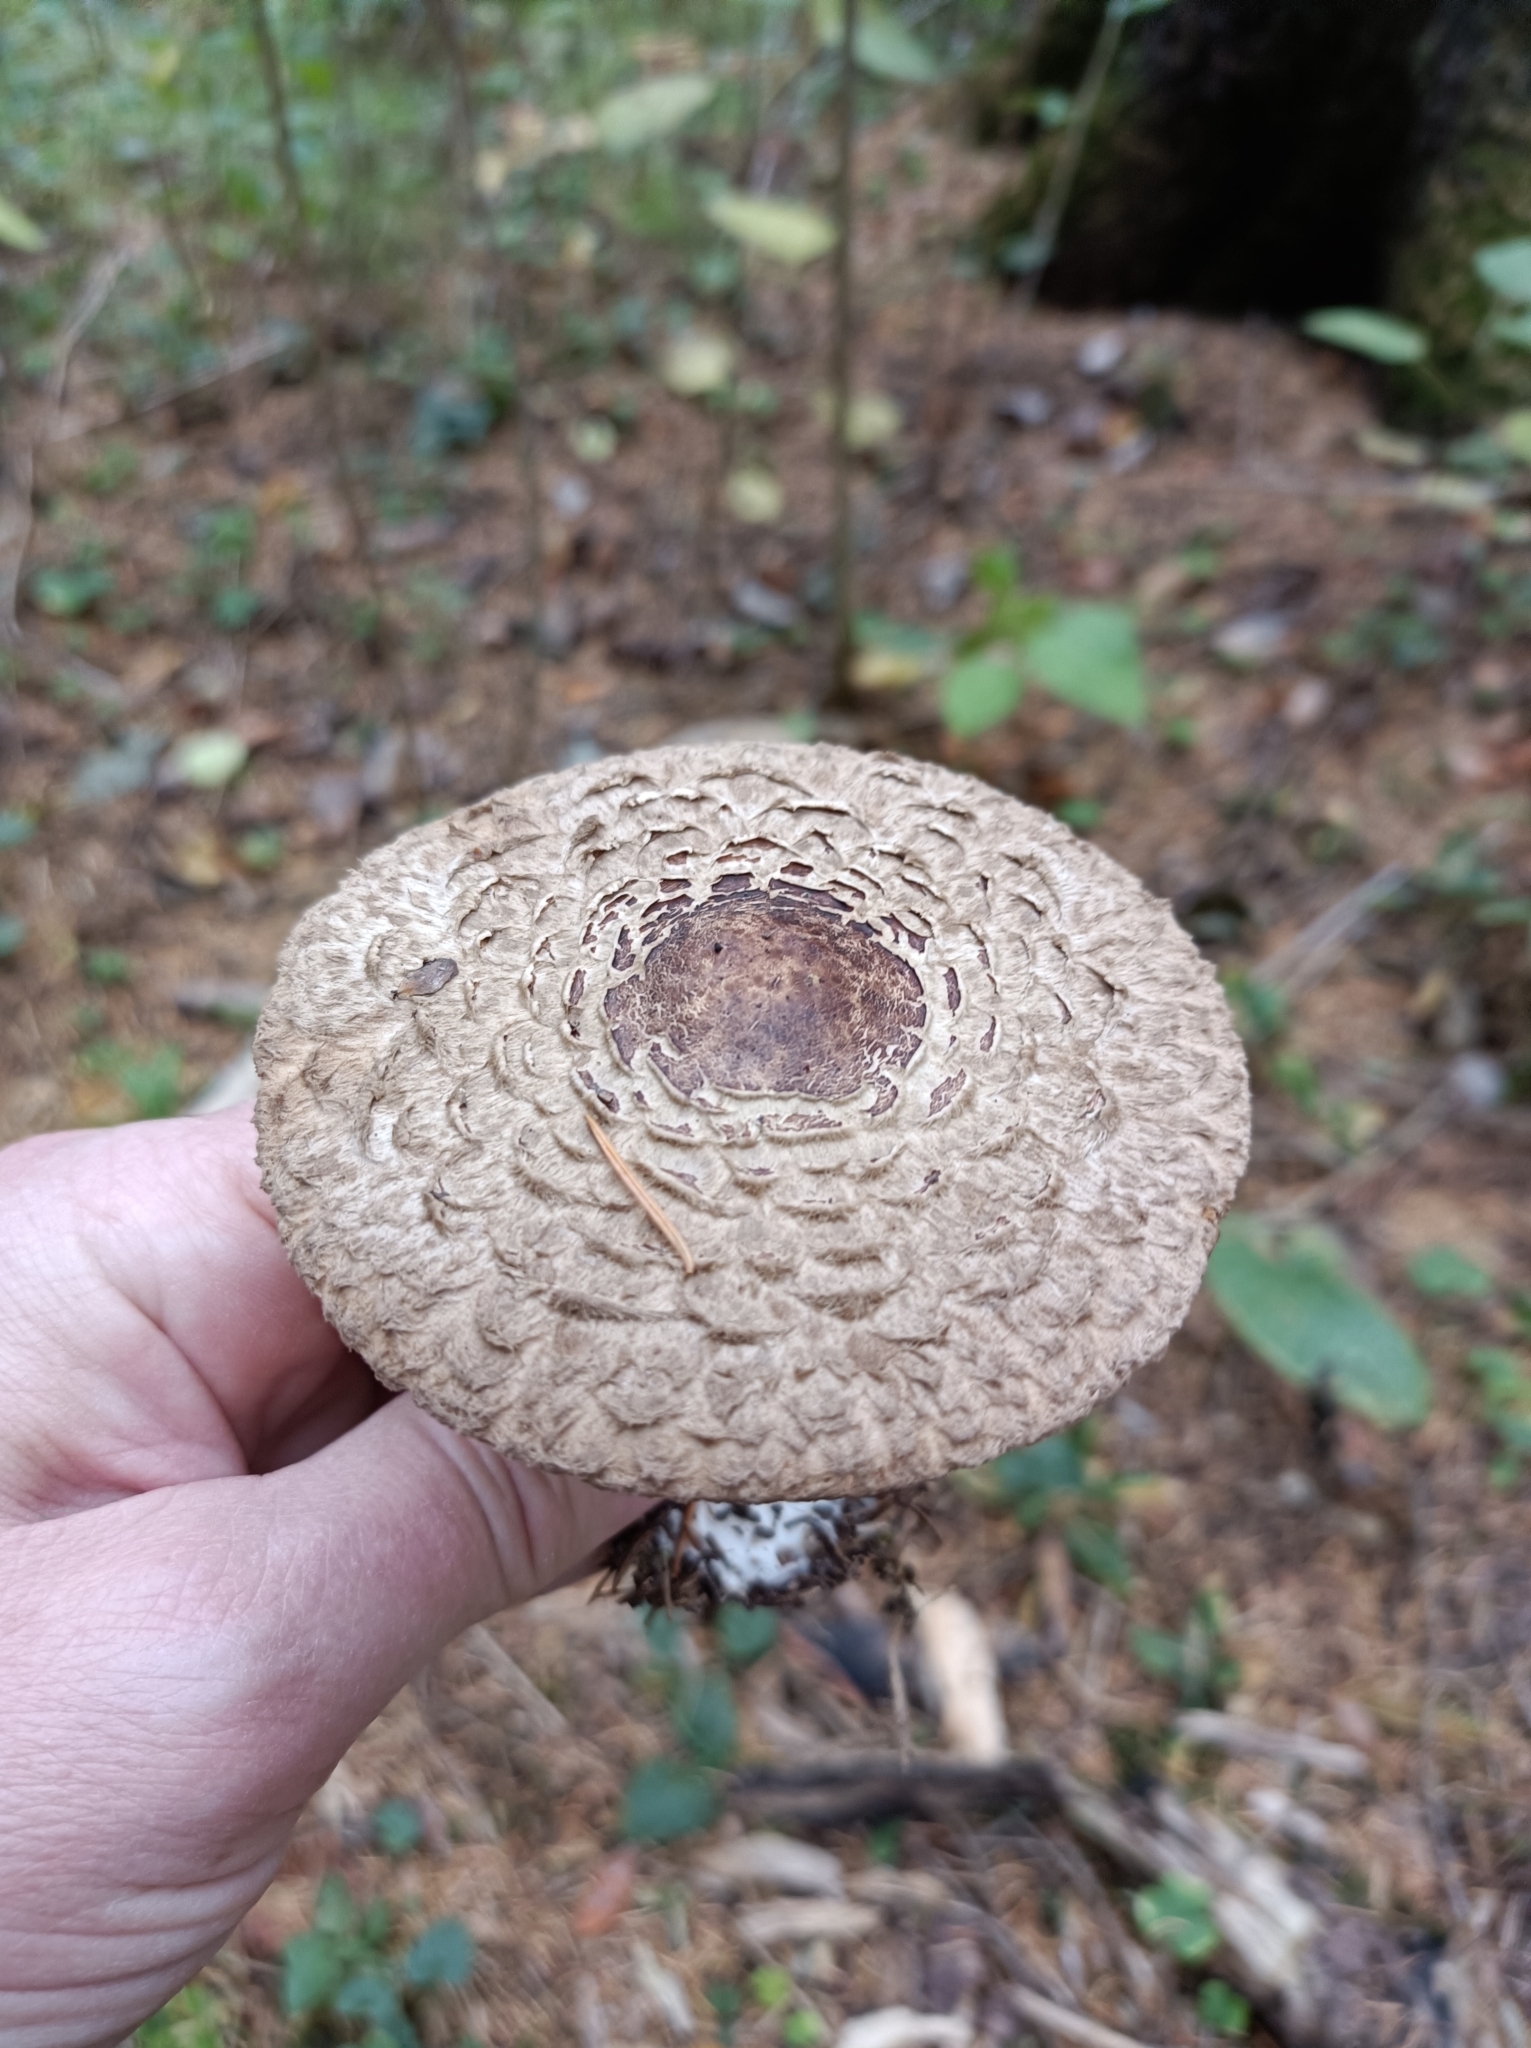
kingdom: Fungi
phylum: Basidiomycota
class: Agaricomycetes
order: Agaricales
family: Agaricaceae
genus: Chlorophyllum
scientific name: Chlorophyllum olivieri
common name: Conifer parasol
